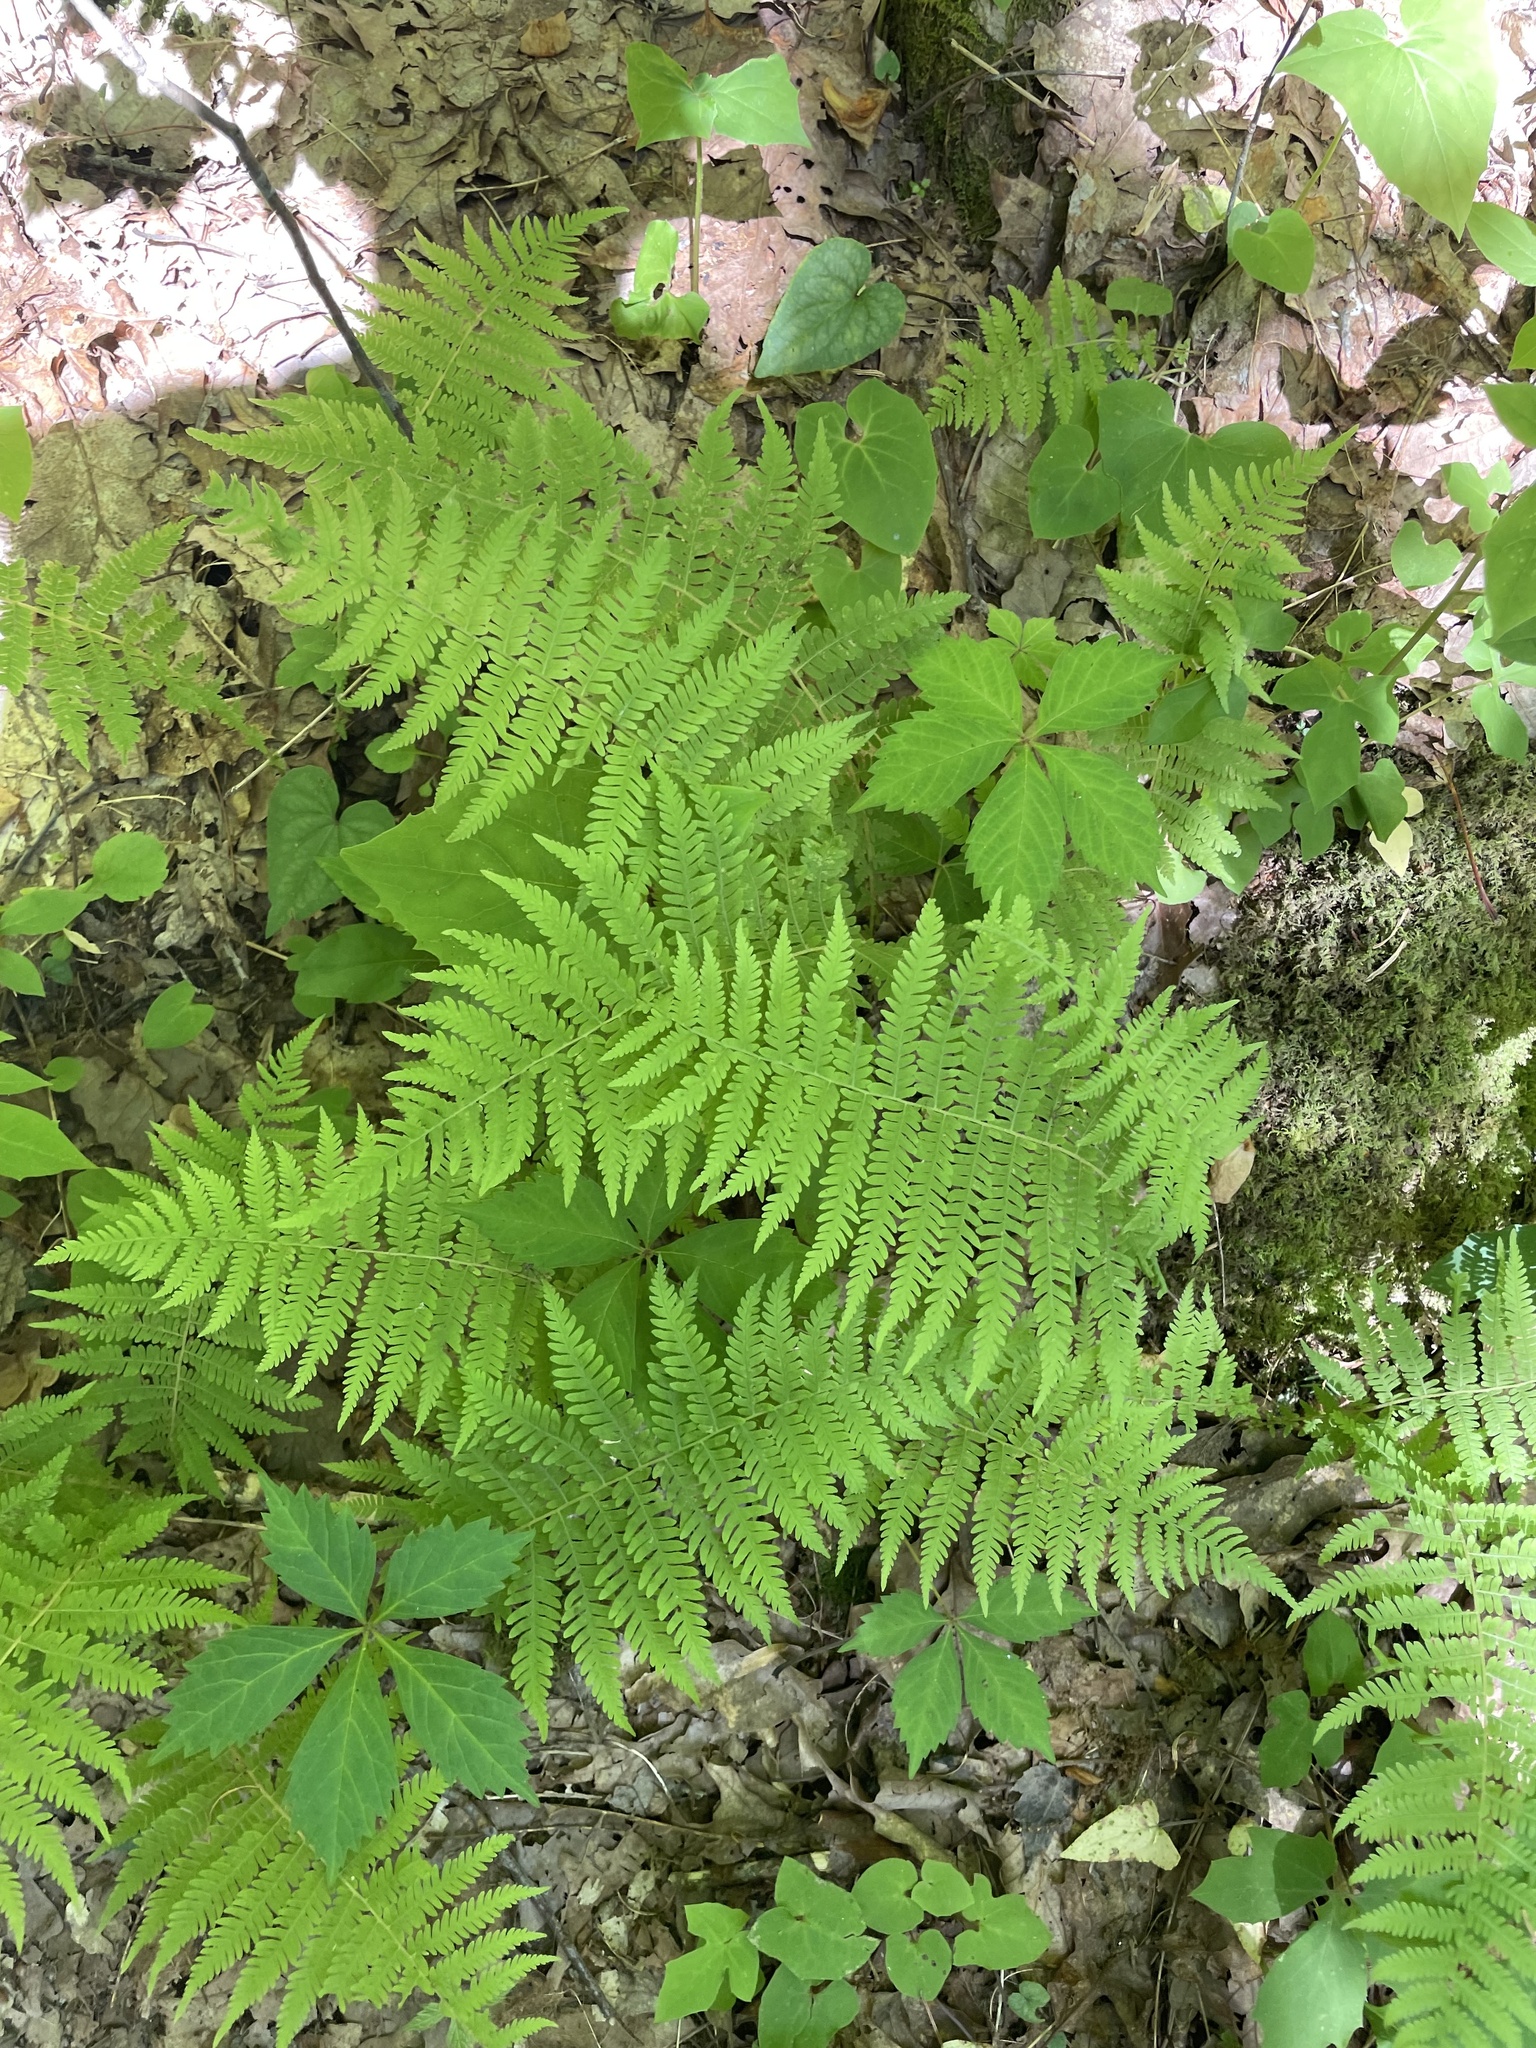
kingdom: Plantae
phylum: Tracheophyta
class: Polypodiopsida
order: Polypodiales
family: Thelypteridaceae
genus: Amauropelta
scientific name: Amauropelta noveboracensis
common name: New york fern
